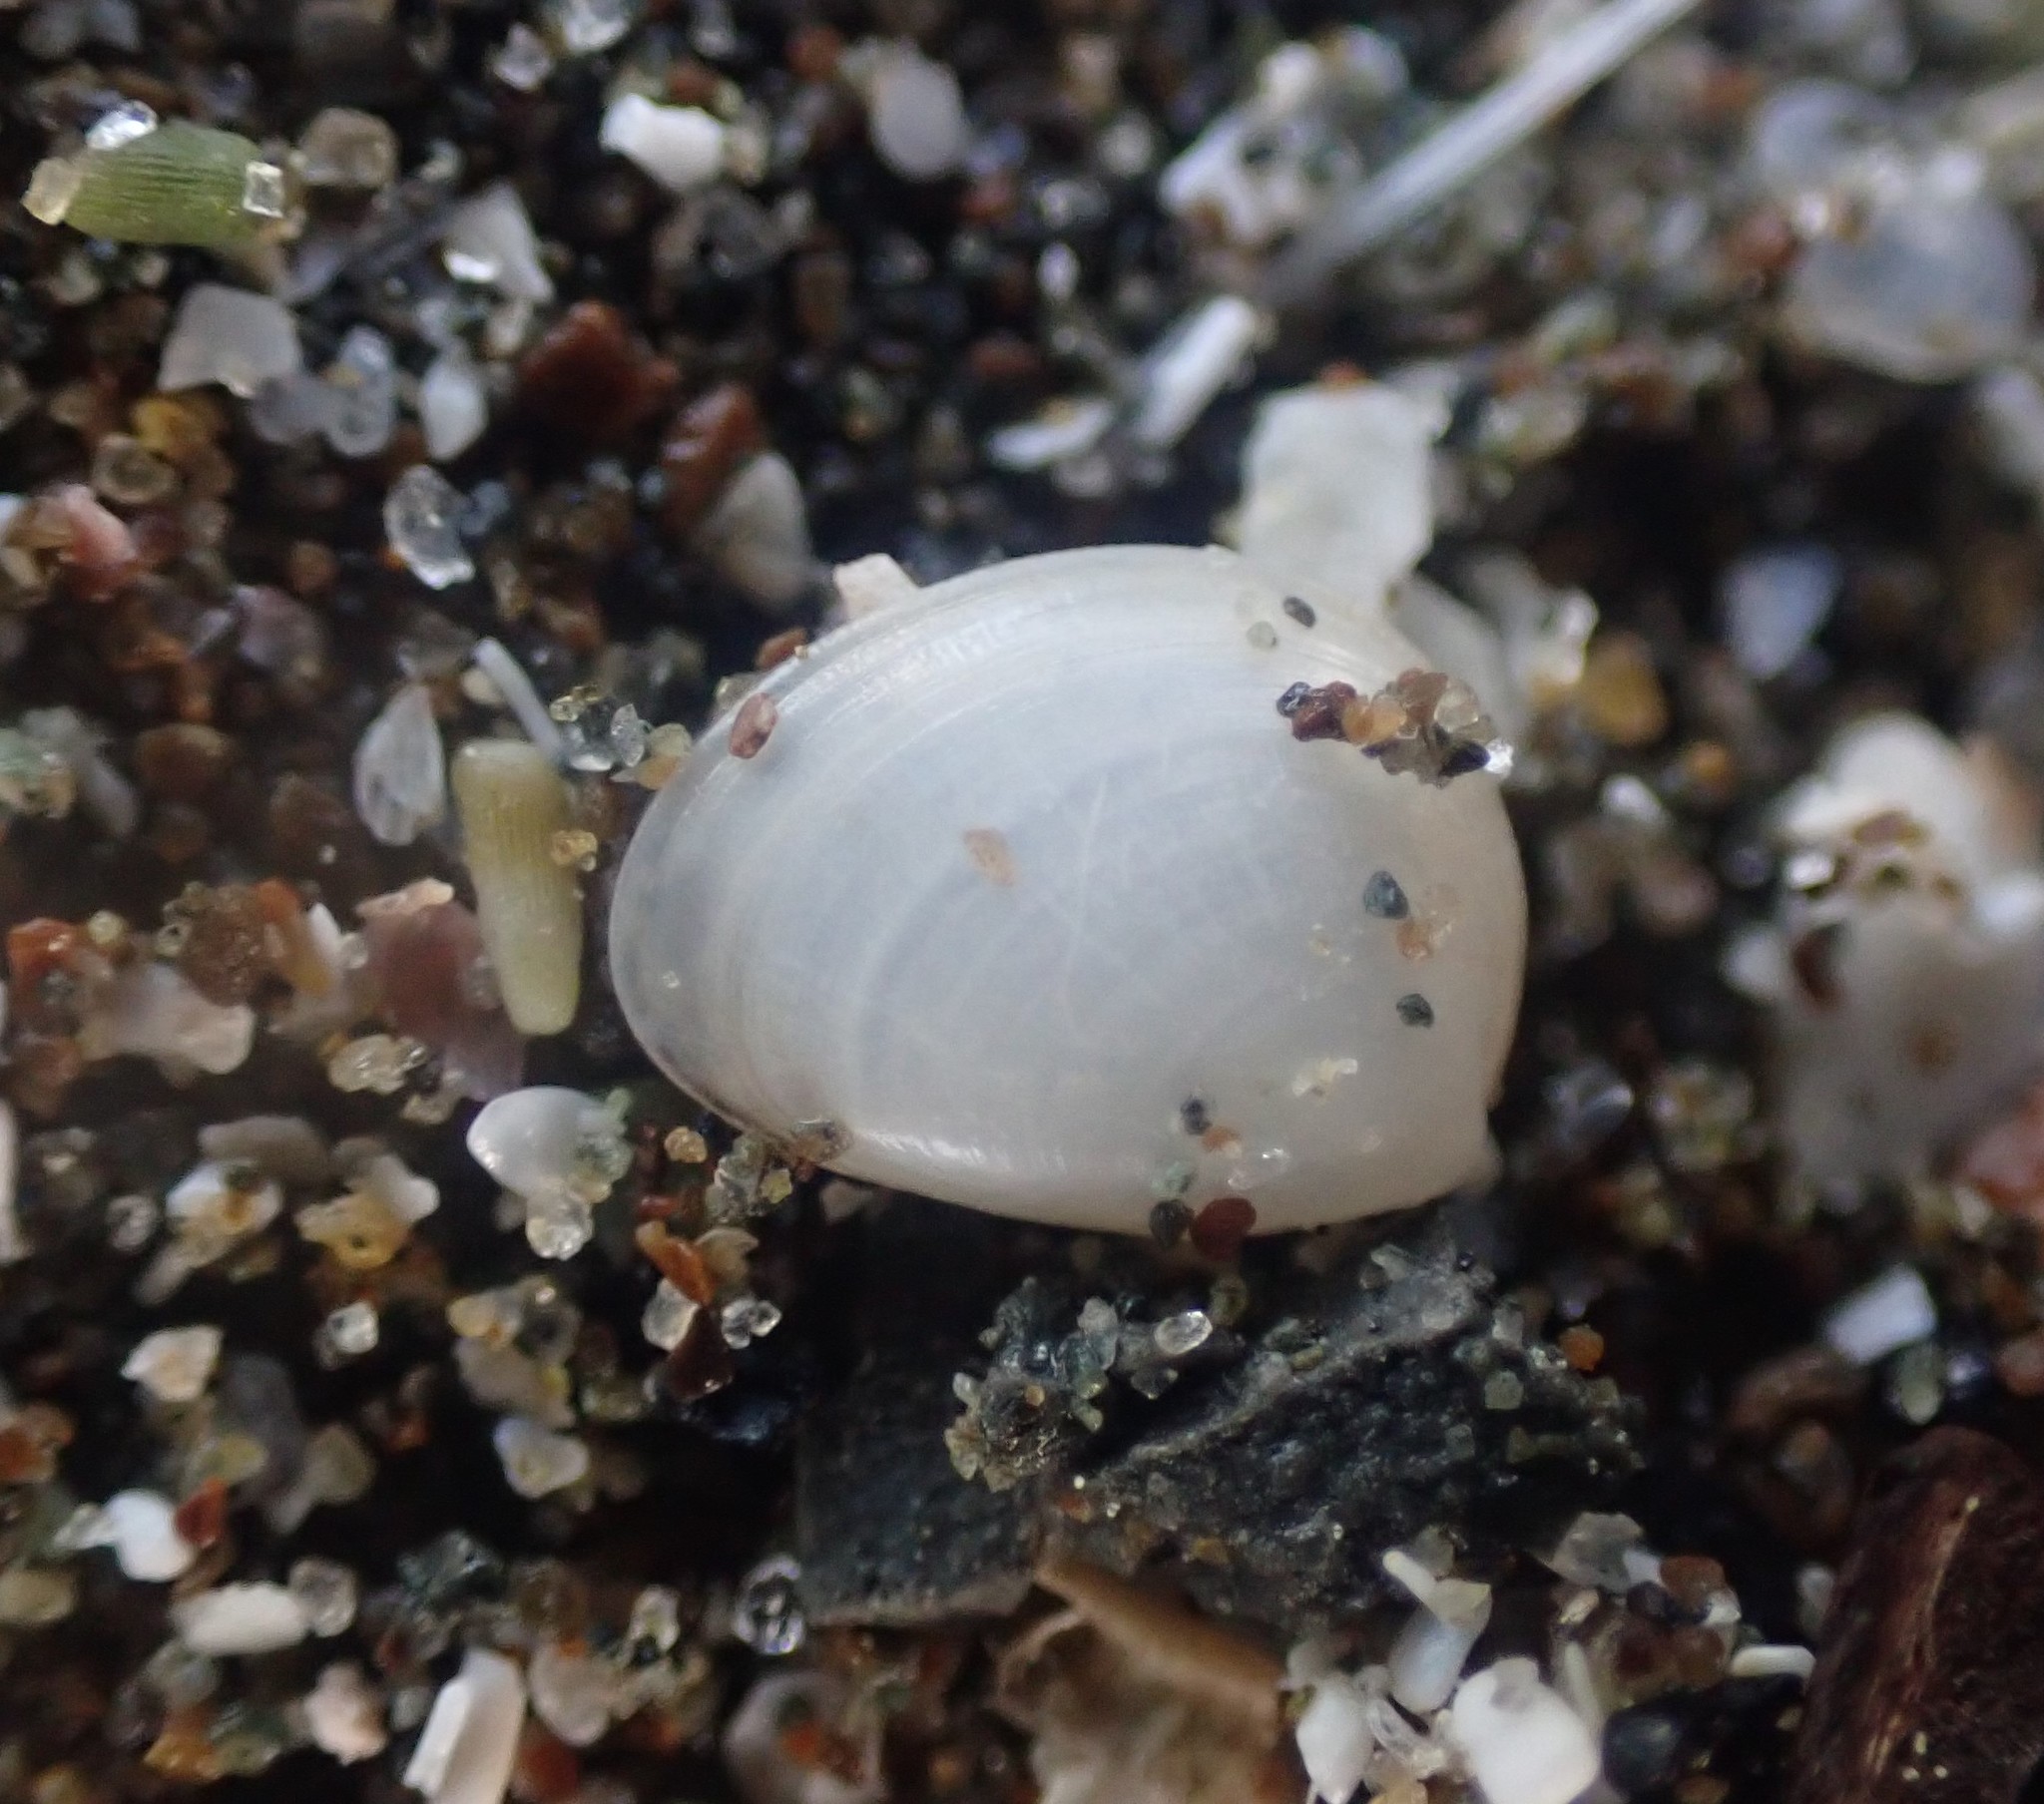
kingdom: Animalia
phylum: Mollusca
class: Bivalvia
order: Nuculida
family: Nuculidae
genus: Nucula
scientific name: Nucula nitidula
